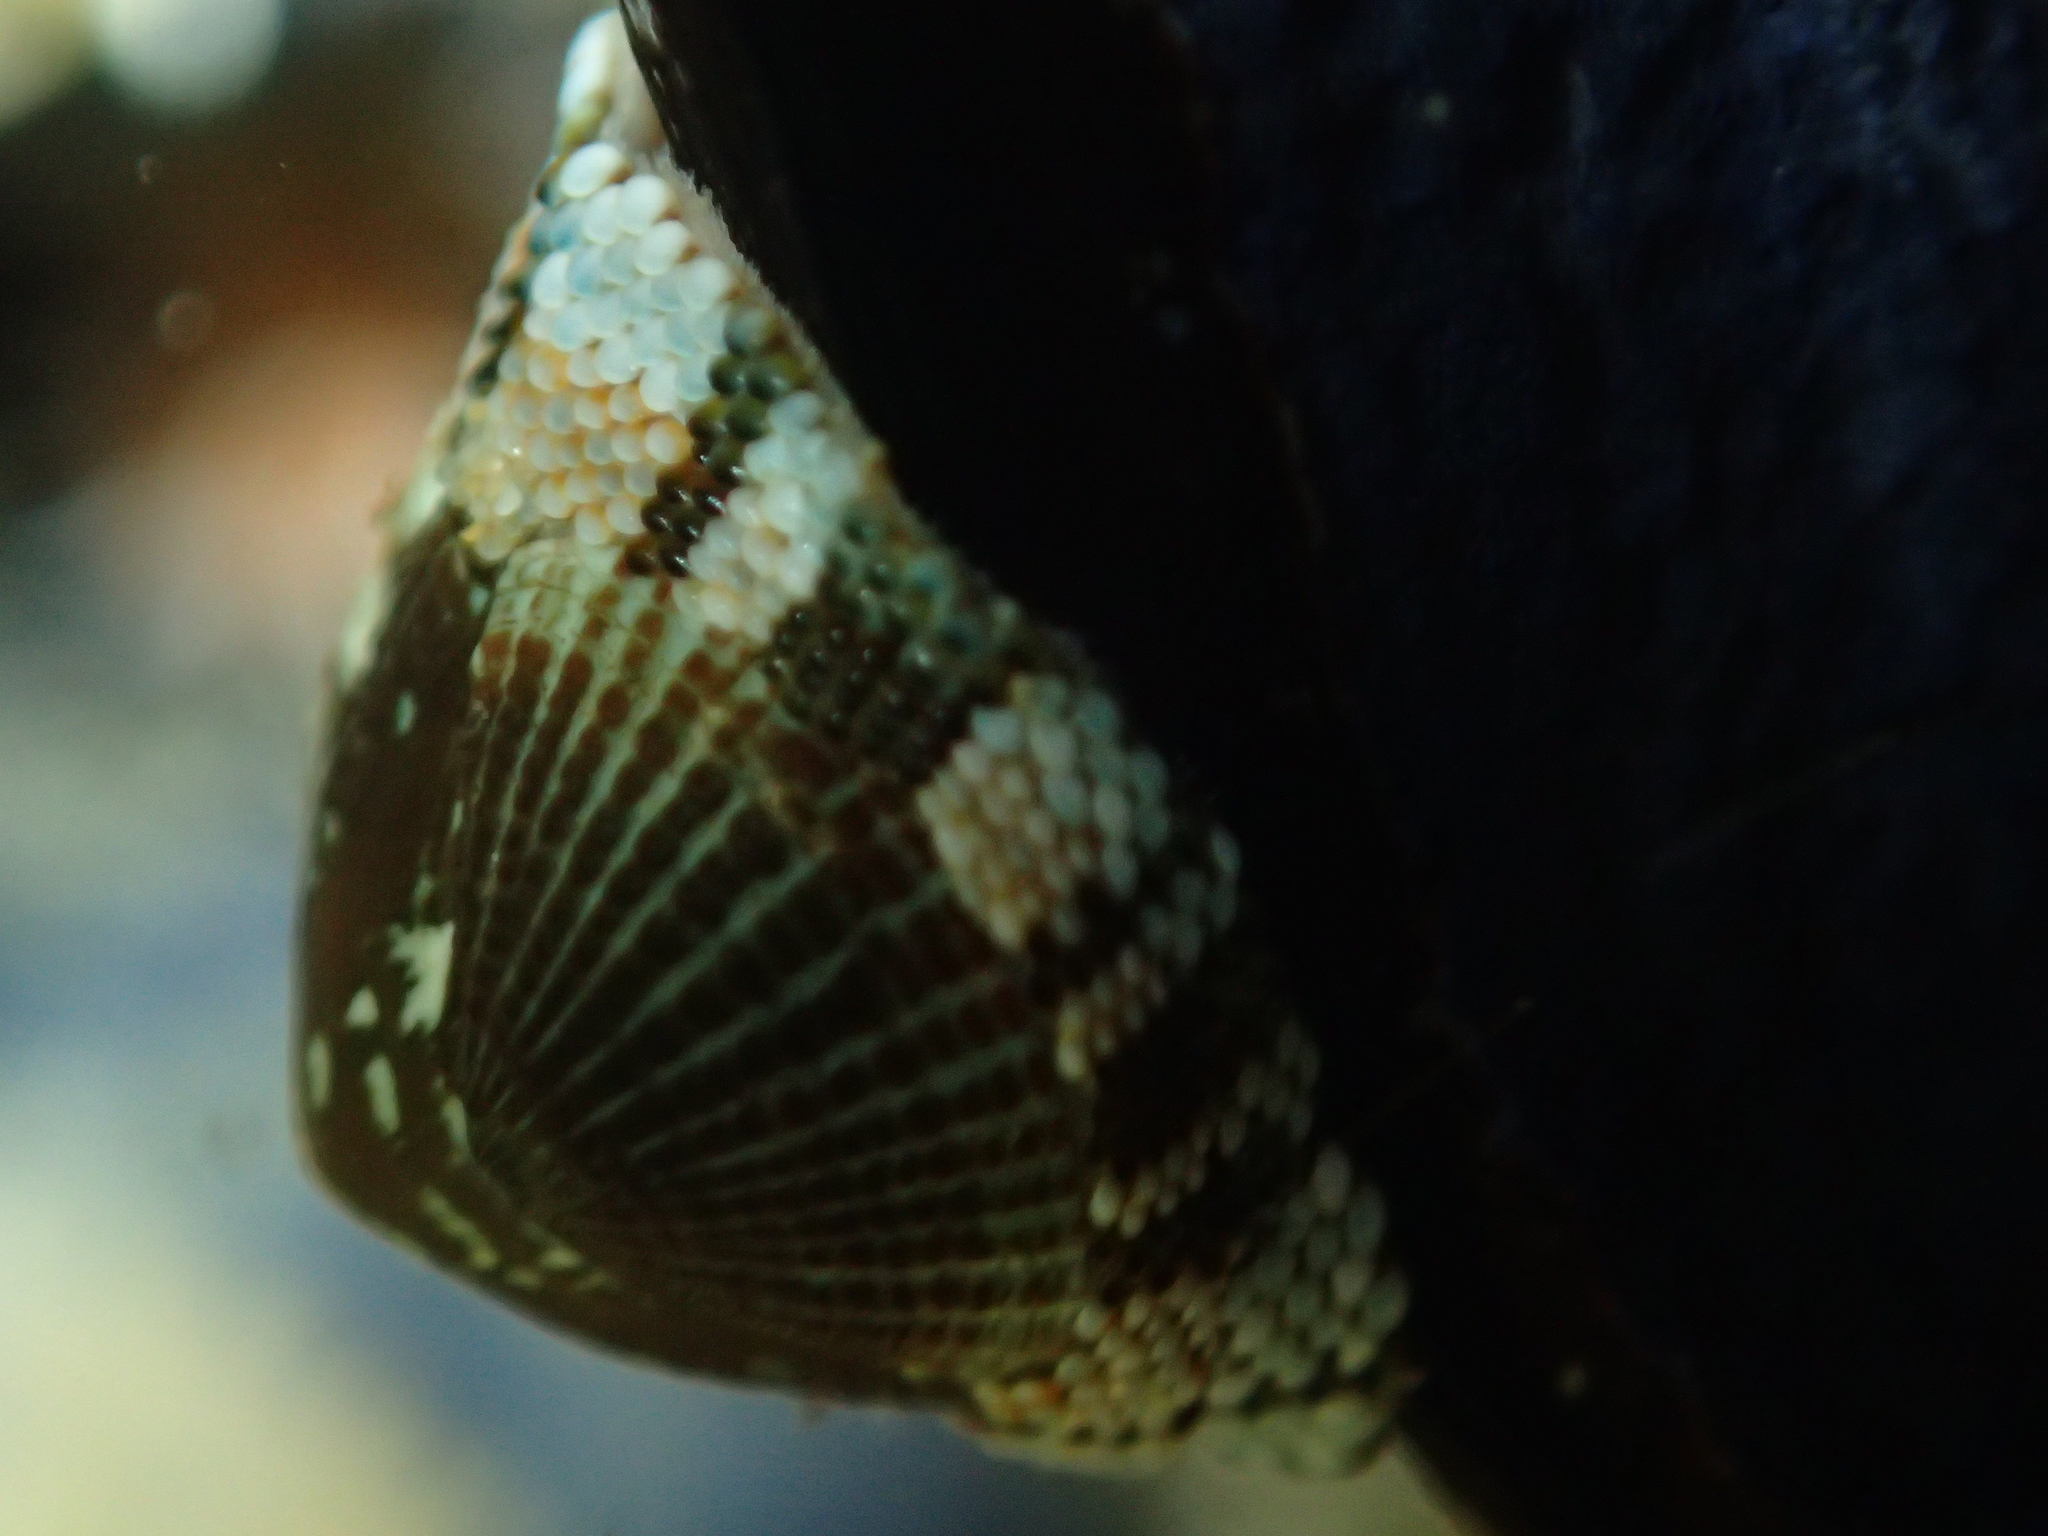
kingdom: Animalia
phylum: Mollusca
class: Polyplacophora
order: Chitonida
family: Chitonidae
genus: Sypharochiton
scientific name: Sypharochiton sinclairi
